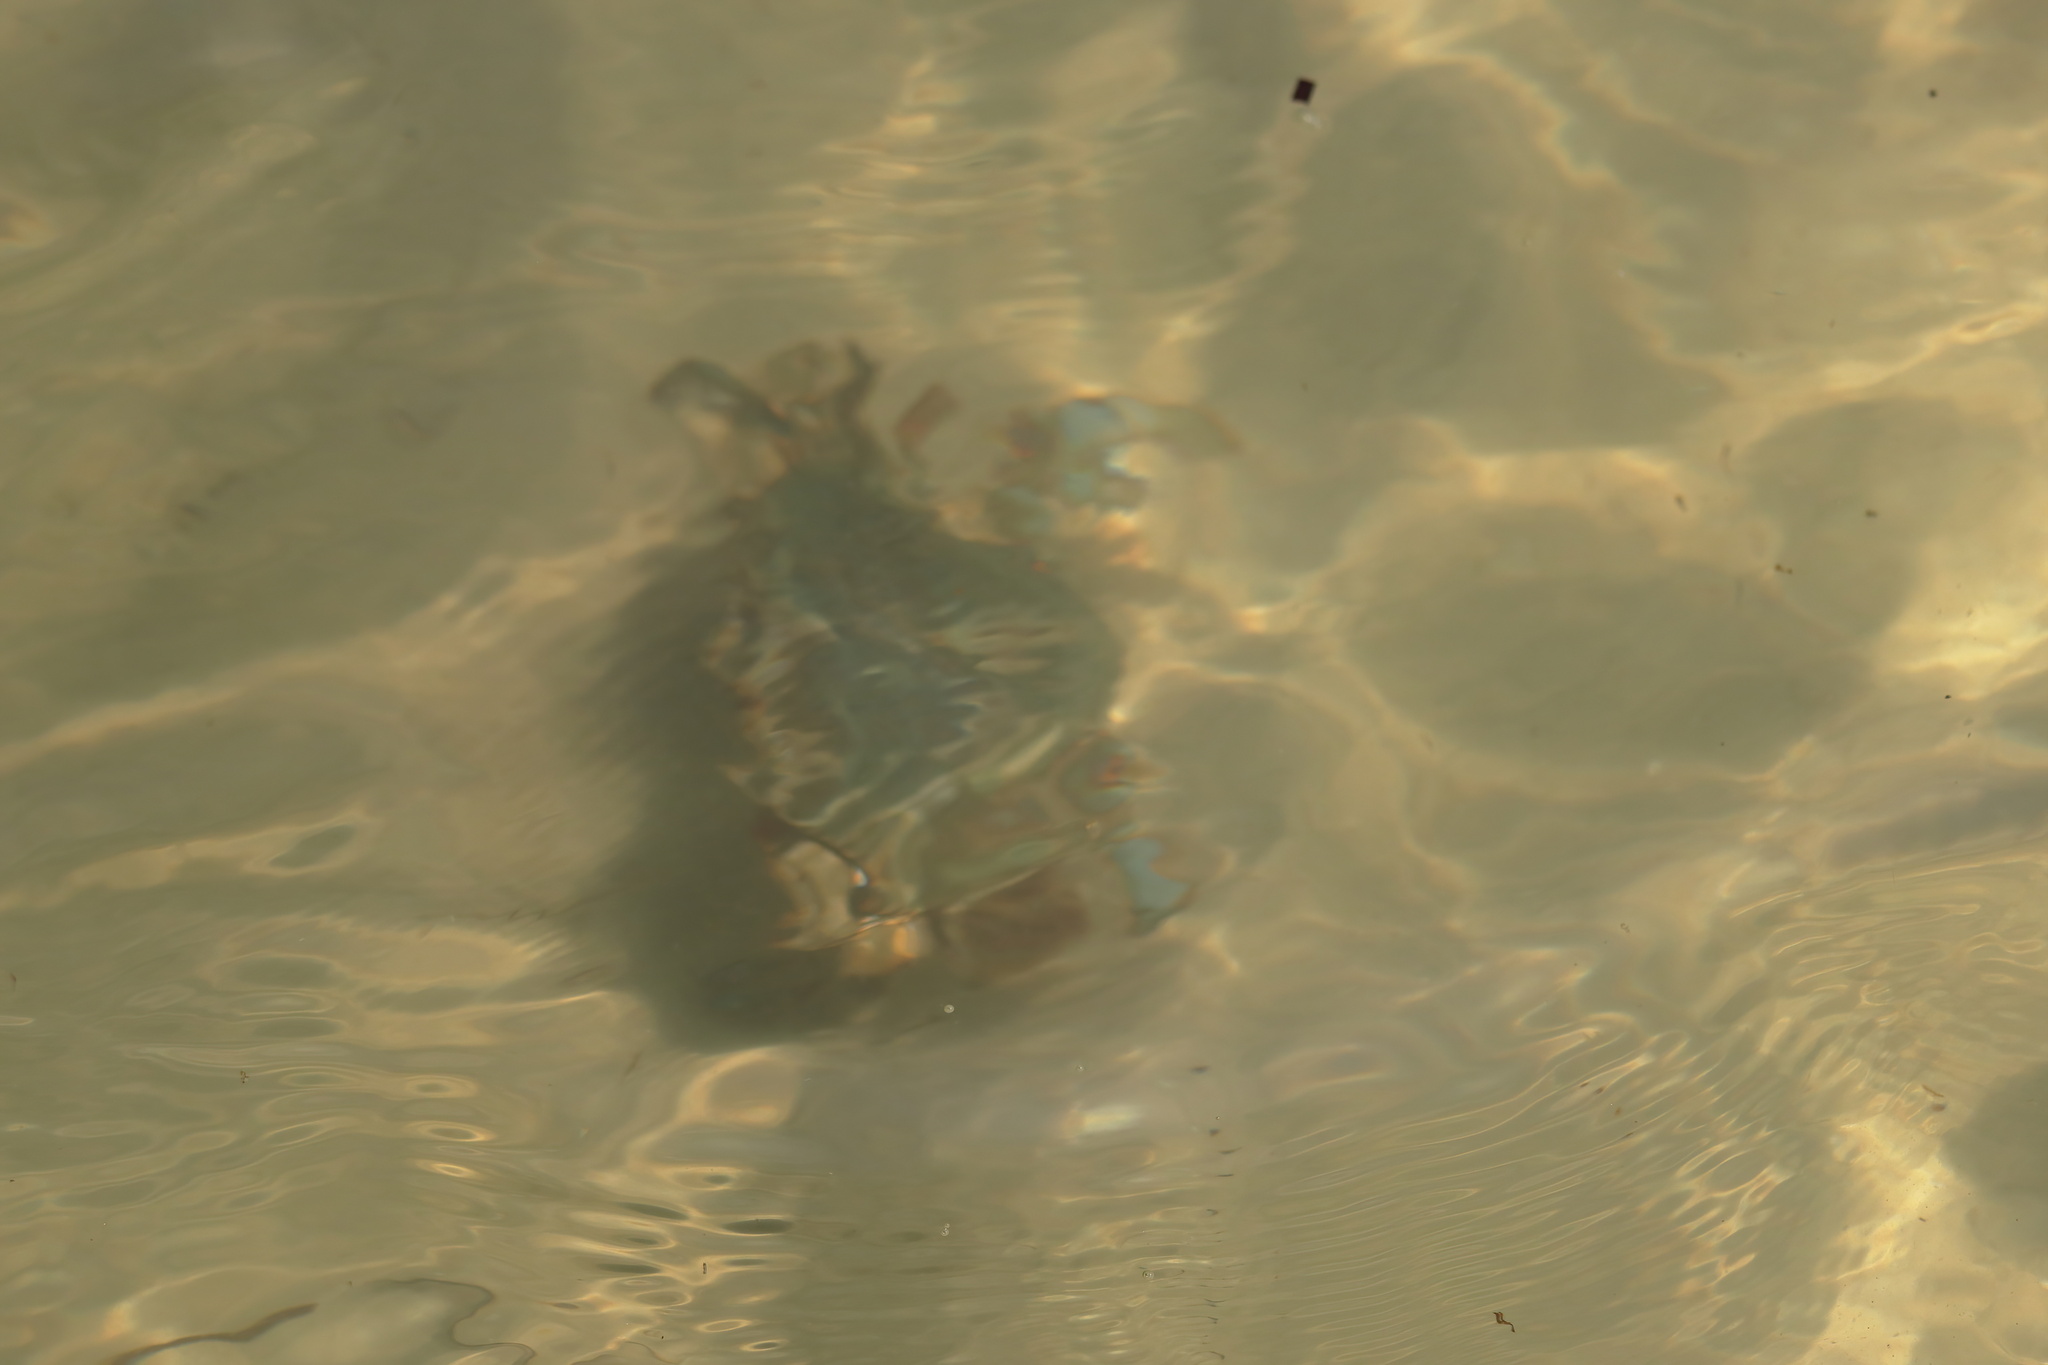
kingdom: Animalia
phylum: Arthropoda
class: Malacostraca
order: Decapoda
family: Portunidae
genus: Callinectes
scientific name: Callinectes sapidus
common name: Blue crab
